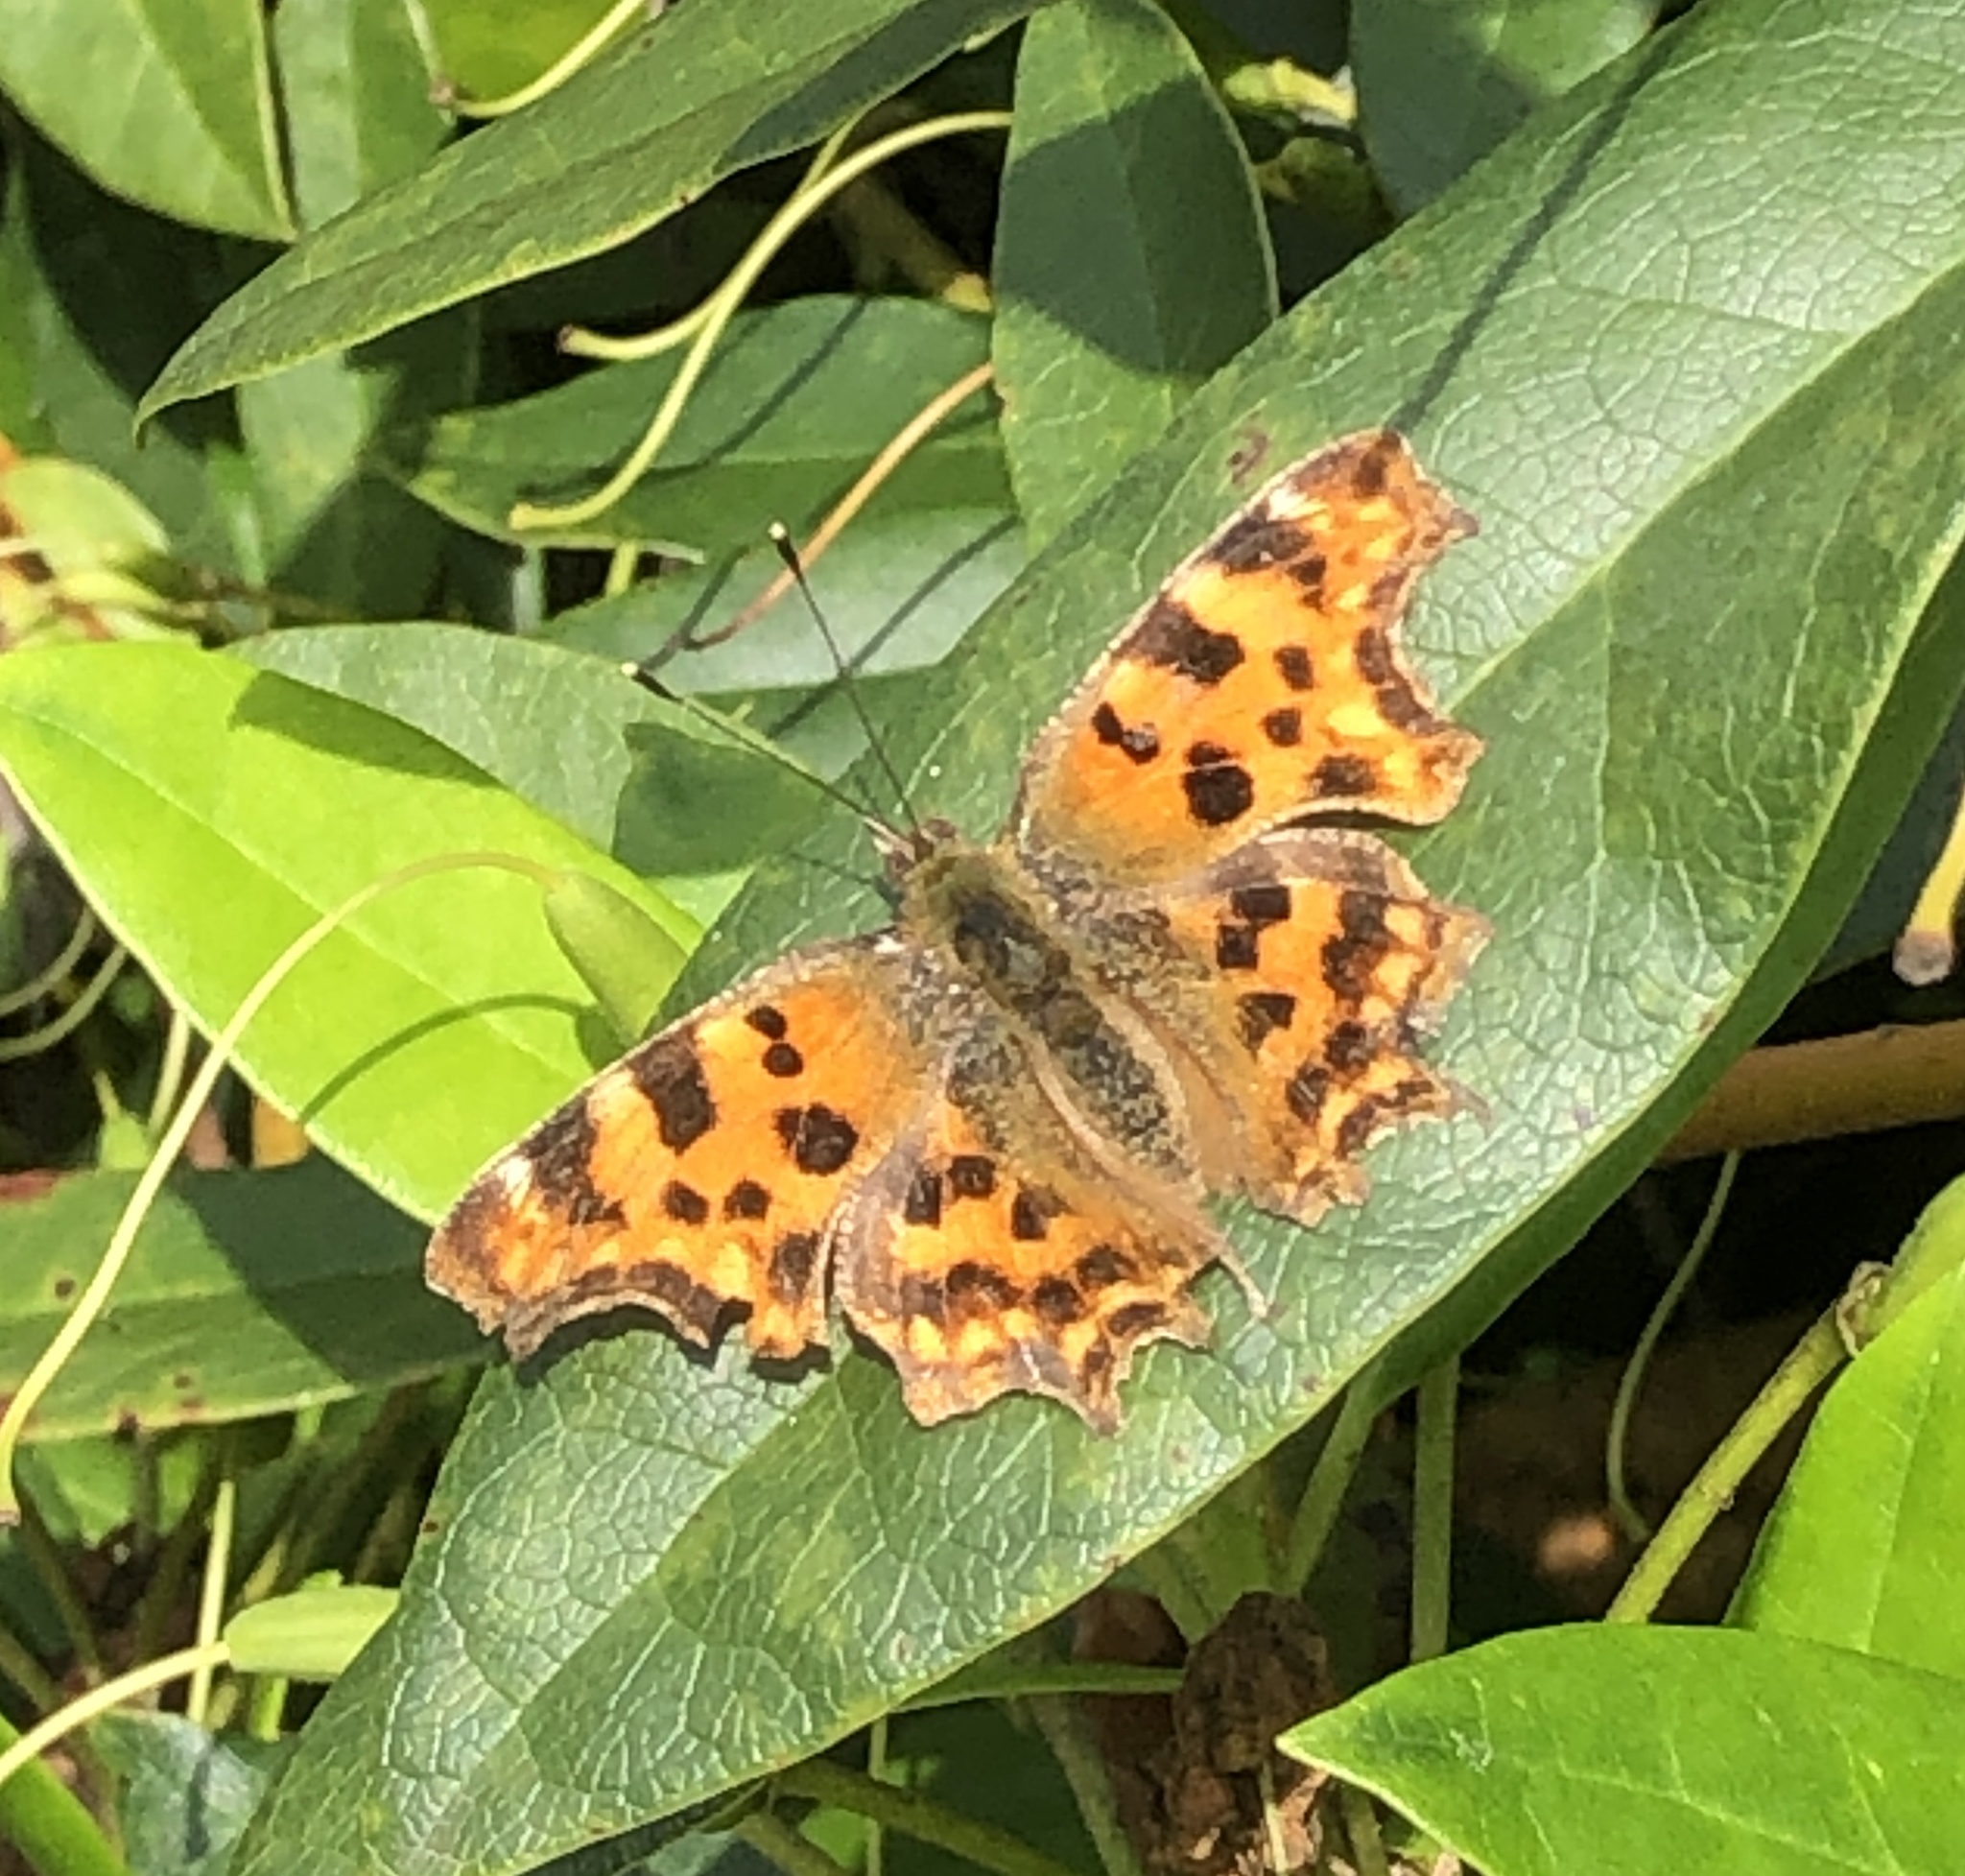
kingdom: Animalia
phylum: Arthropoda
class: Insecta
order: Lepidoptera
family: Nymphalidae
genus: Polygonia
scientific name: Polygonia c-album
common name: Comma
